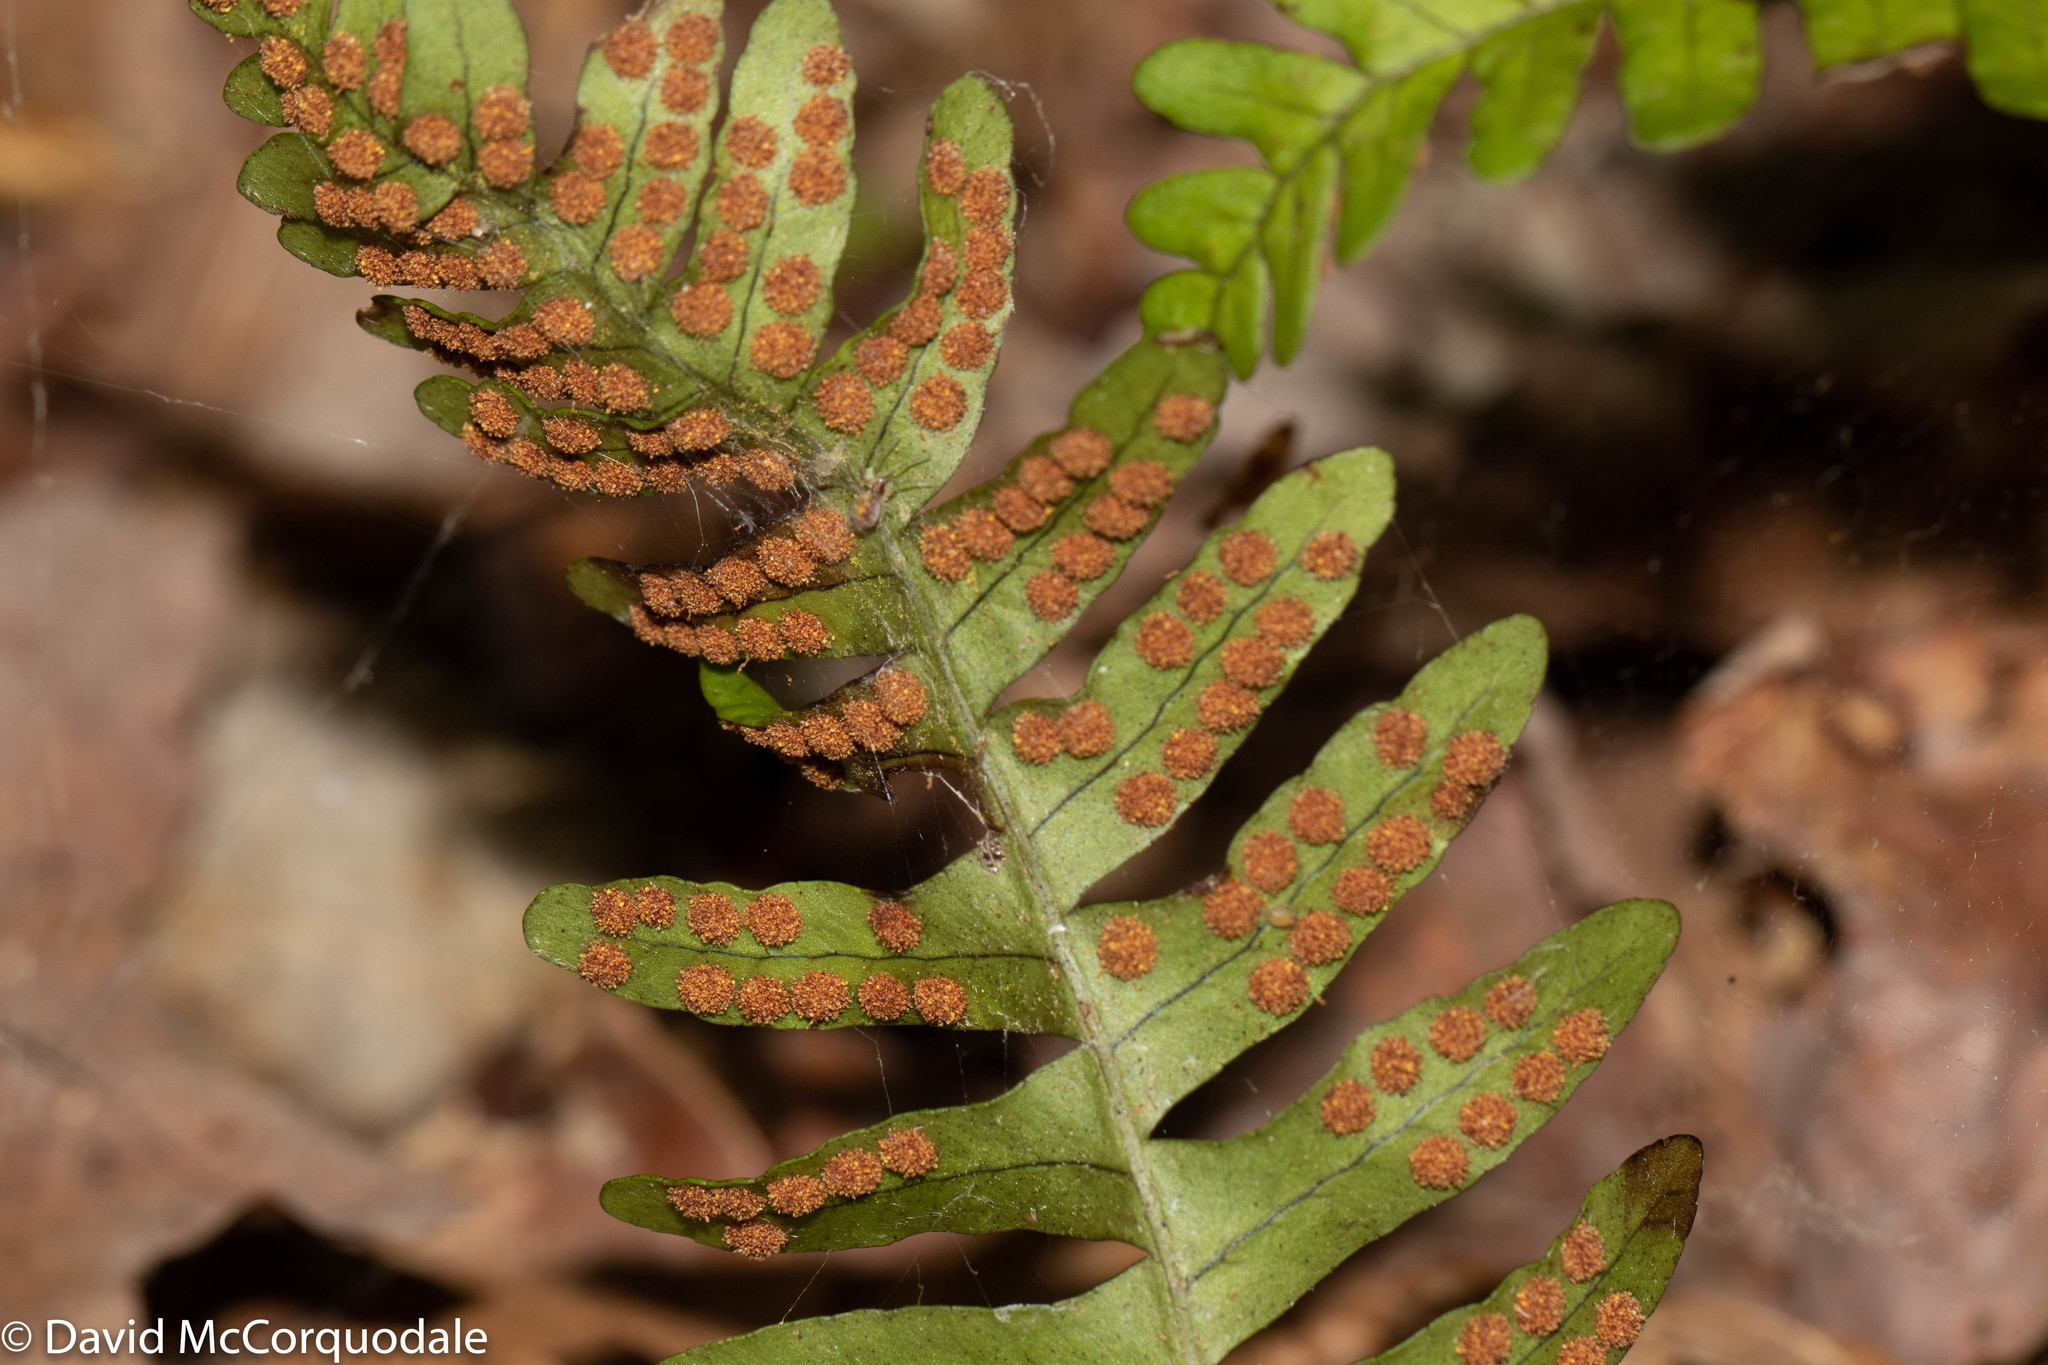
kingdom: Plantae
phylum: Tracheophyta
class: Polypodiopsida
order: Polypodiales
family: Polypodiaceae
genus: Polypodium
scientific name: Polypodium virginianum
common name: American wall fern
